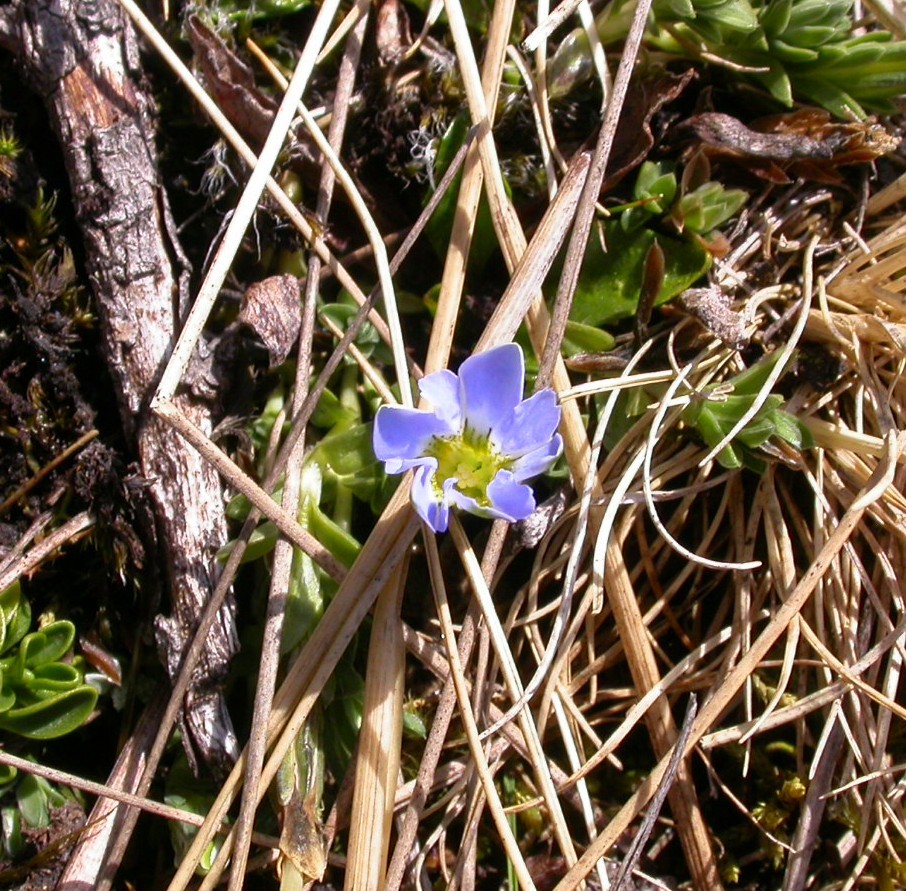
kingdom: Plantae
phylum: Tracheophyta
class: Magnoliopsida
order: Gentianales
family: Gentianaceae
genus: Gentiana
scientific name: Gentiana sedifolia
